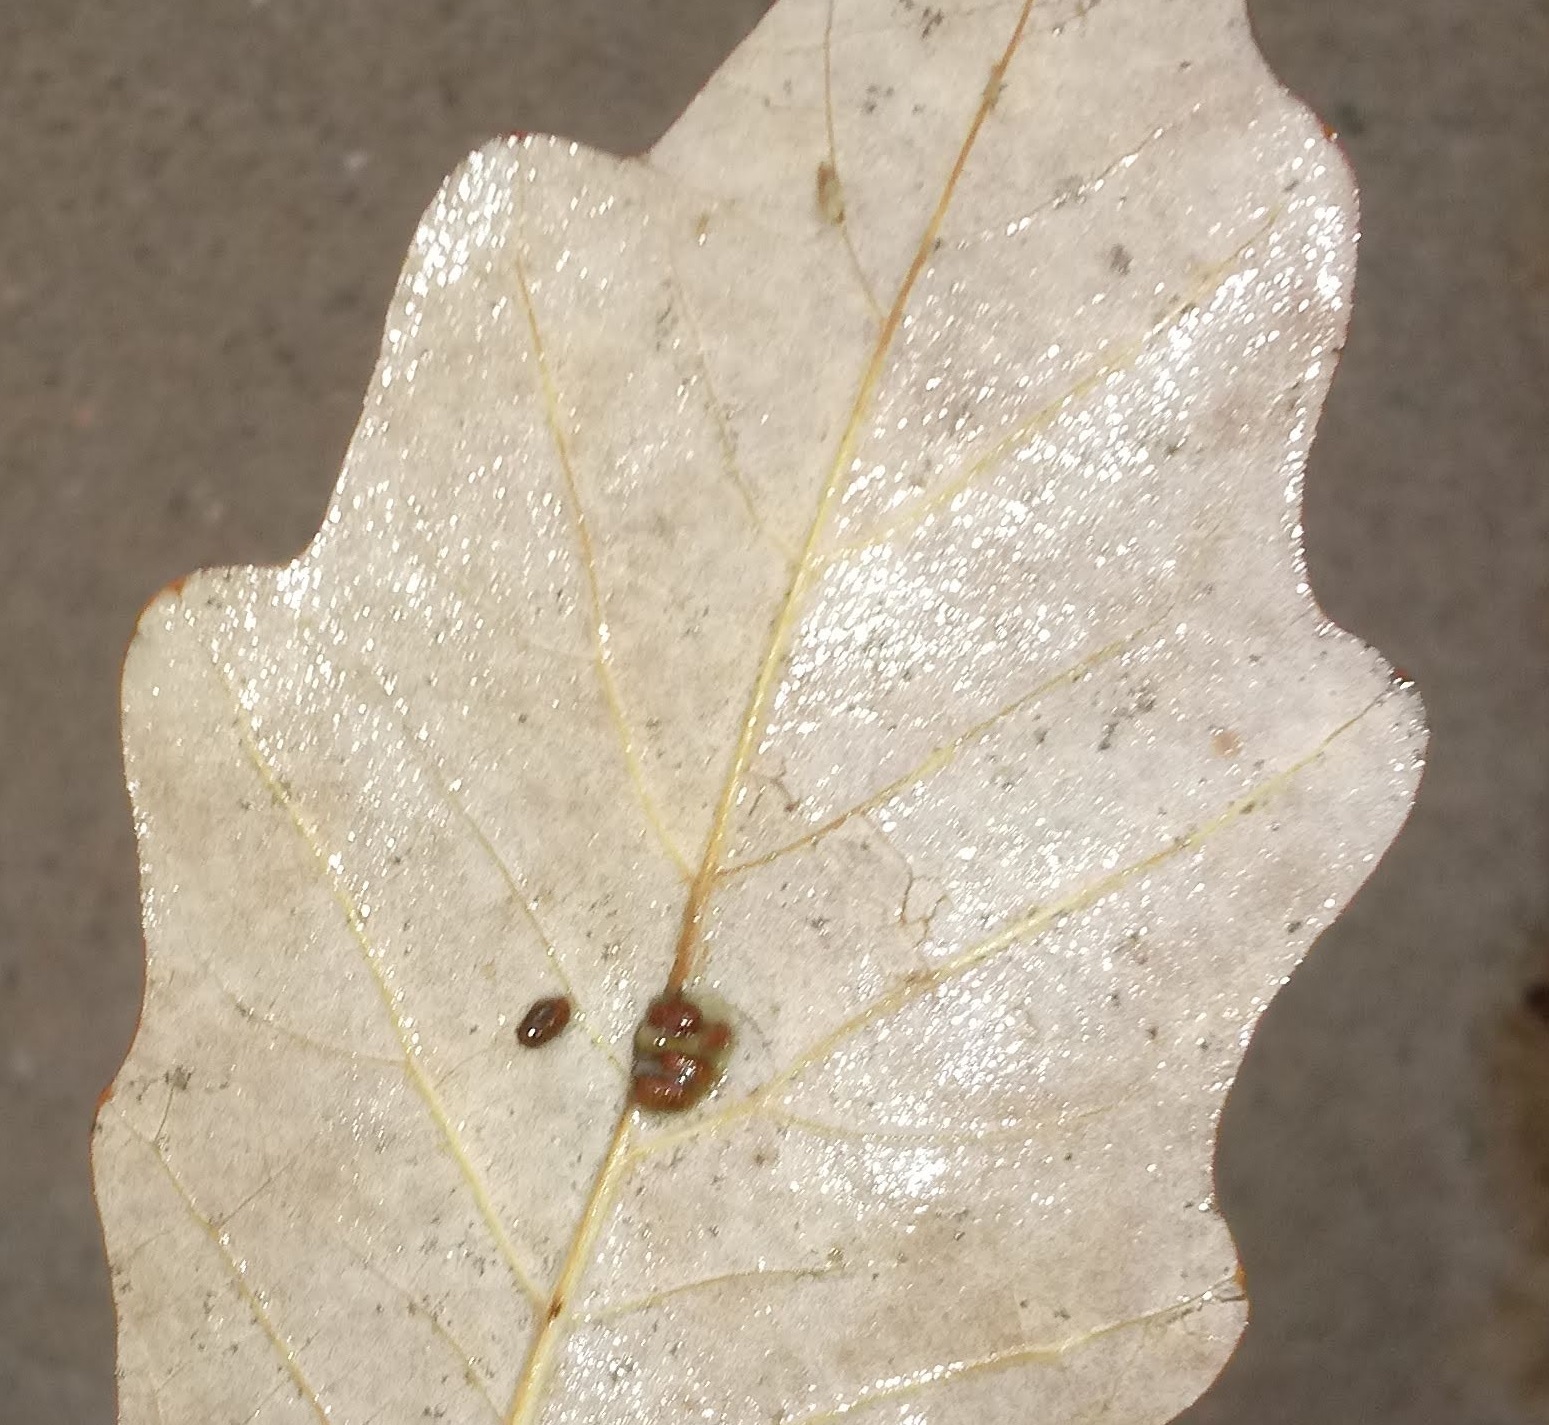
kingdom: Animalia
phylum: Arthropoda
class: Insecta
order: Hymenoptera
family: Cynipidae
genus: Andricus
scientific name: Andricus Druon ignotum
